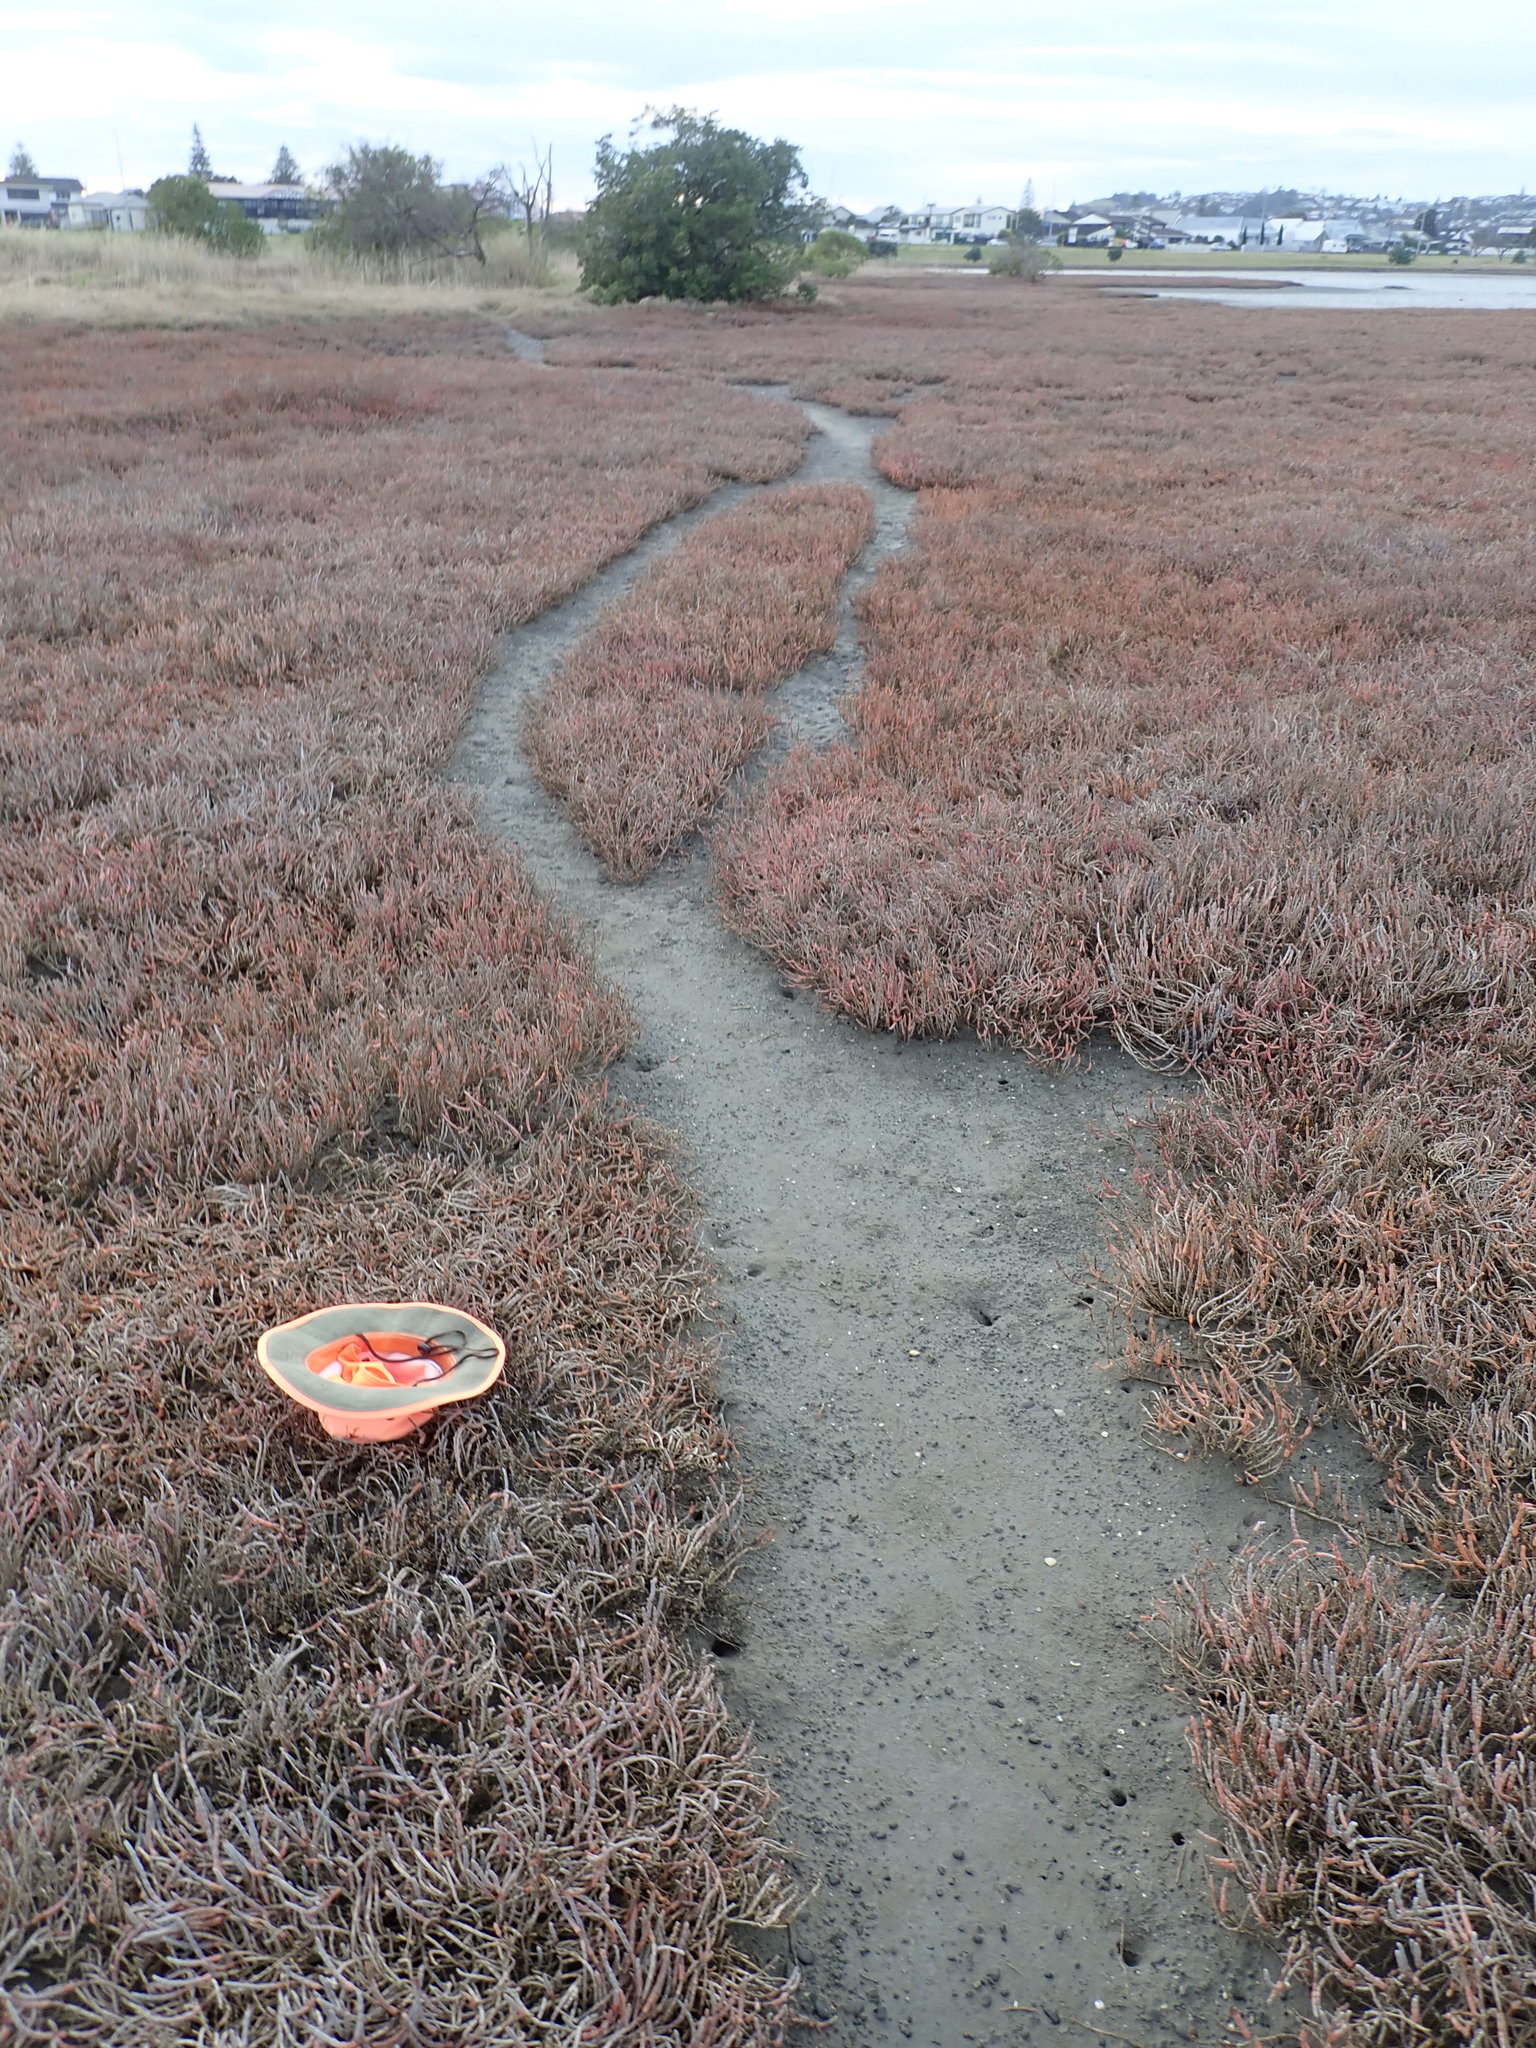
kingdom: Plantae
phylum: Tracheophyta
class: Magnoliopsida
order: Ericales
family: Primulaceae
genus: Samolus
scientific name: Samolus repens
